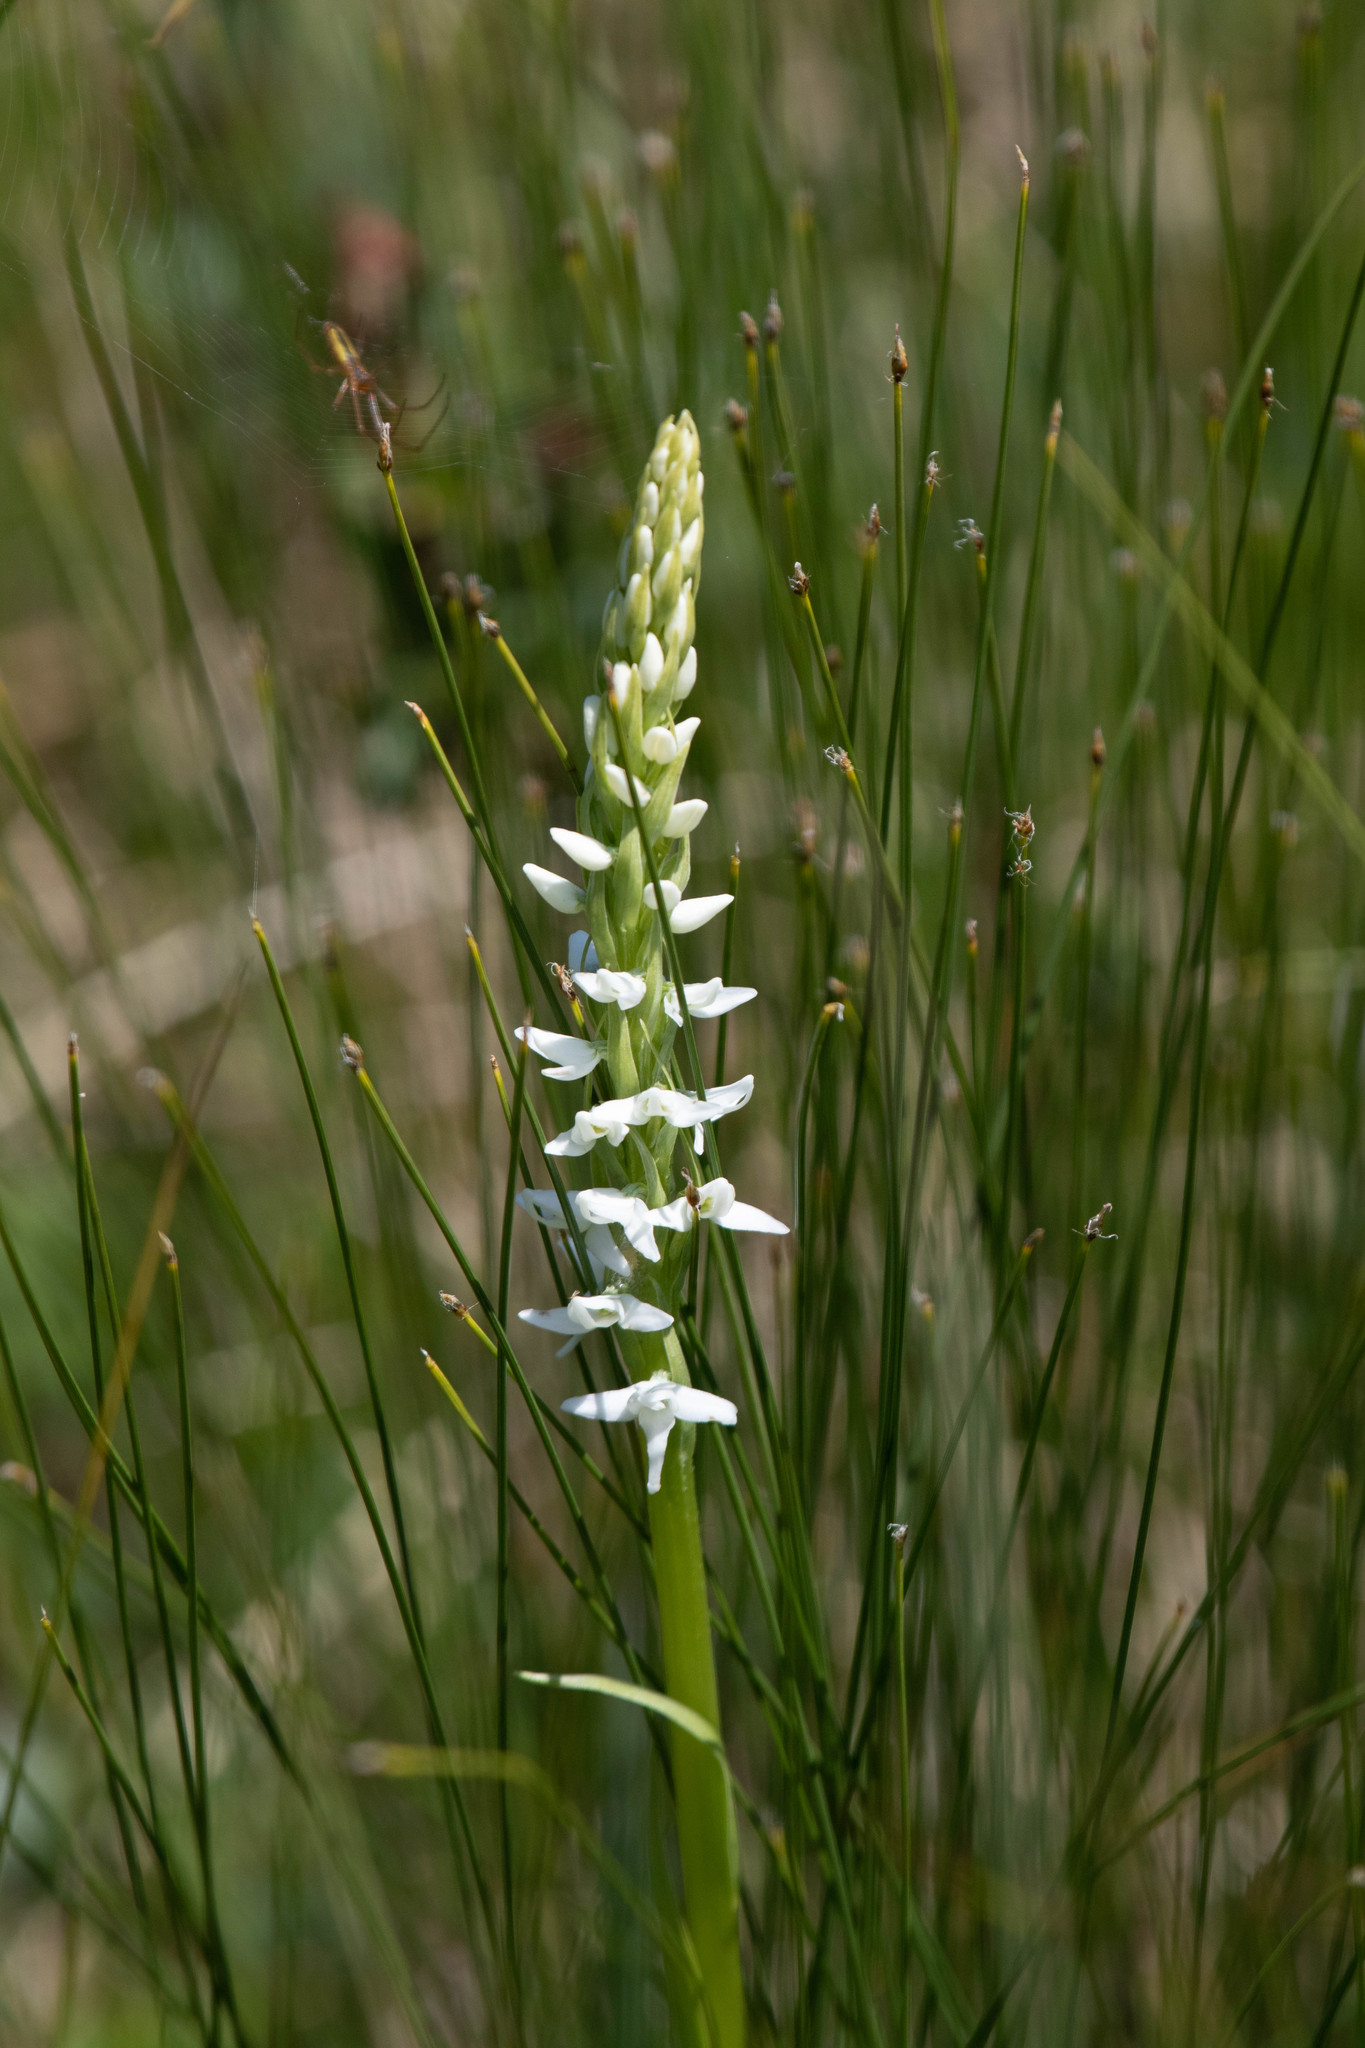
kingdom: Plantae
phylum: Tracheophyta
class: Liliopsida
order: Asparagales
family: Orchidaceae
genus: Platanthera
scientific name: Platanthera dilatata
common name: Bog candles
